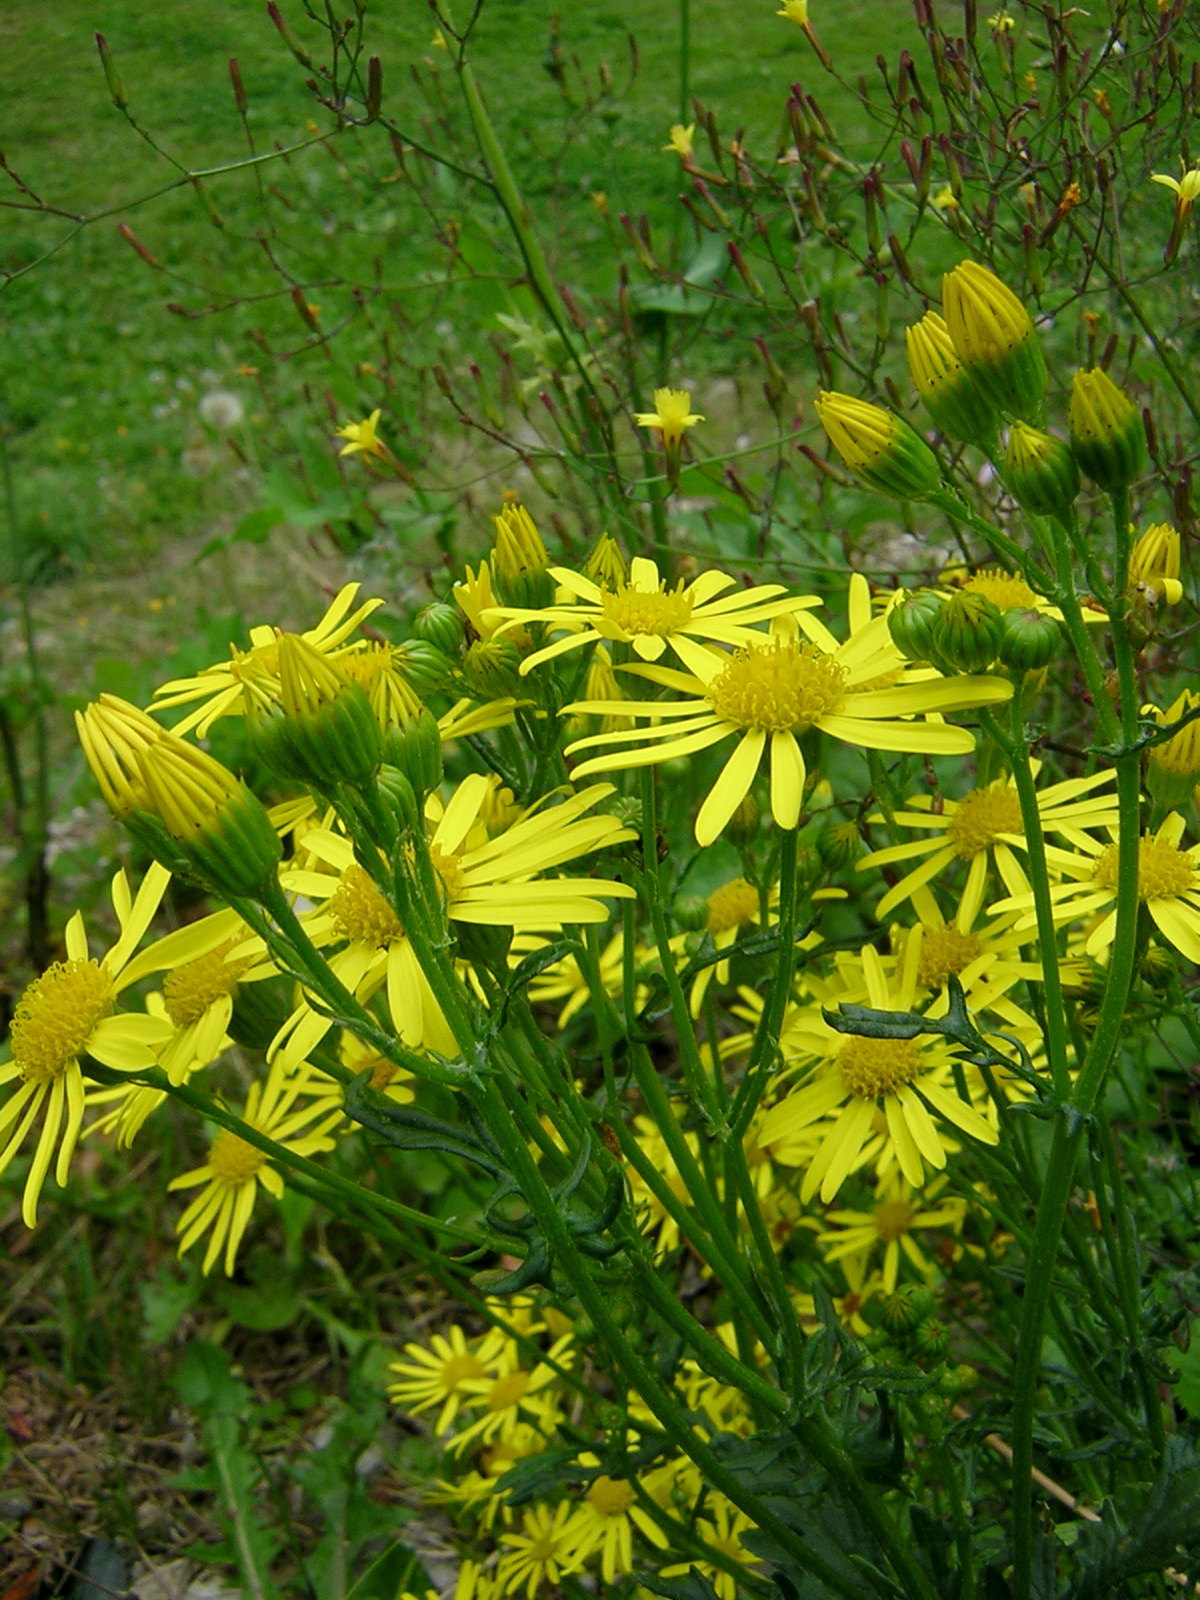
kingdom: Plantae
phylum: Tracheophyta
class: Magnoliopsida
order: Asterales
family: Asteraceae
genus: Jacobaea
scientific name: Jacobaea vulgaris
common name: Stinking willie
